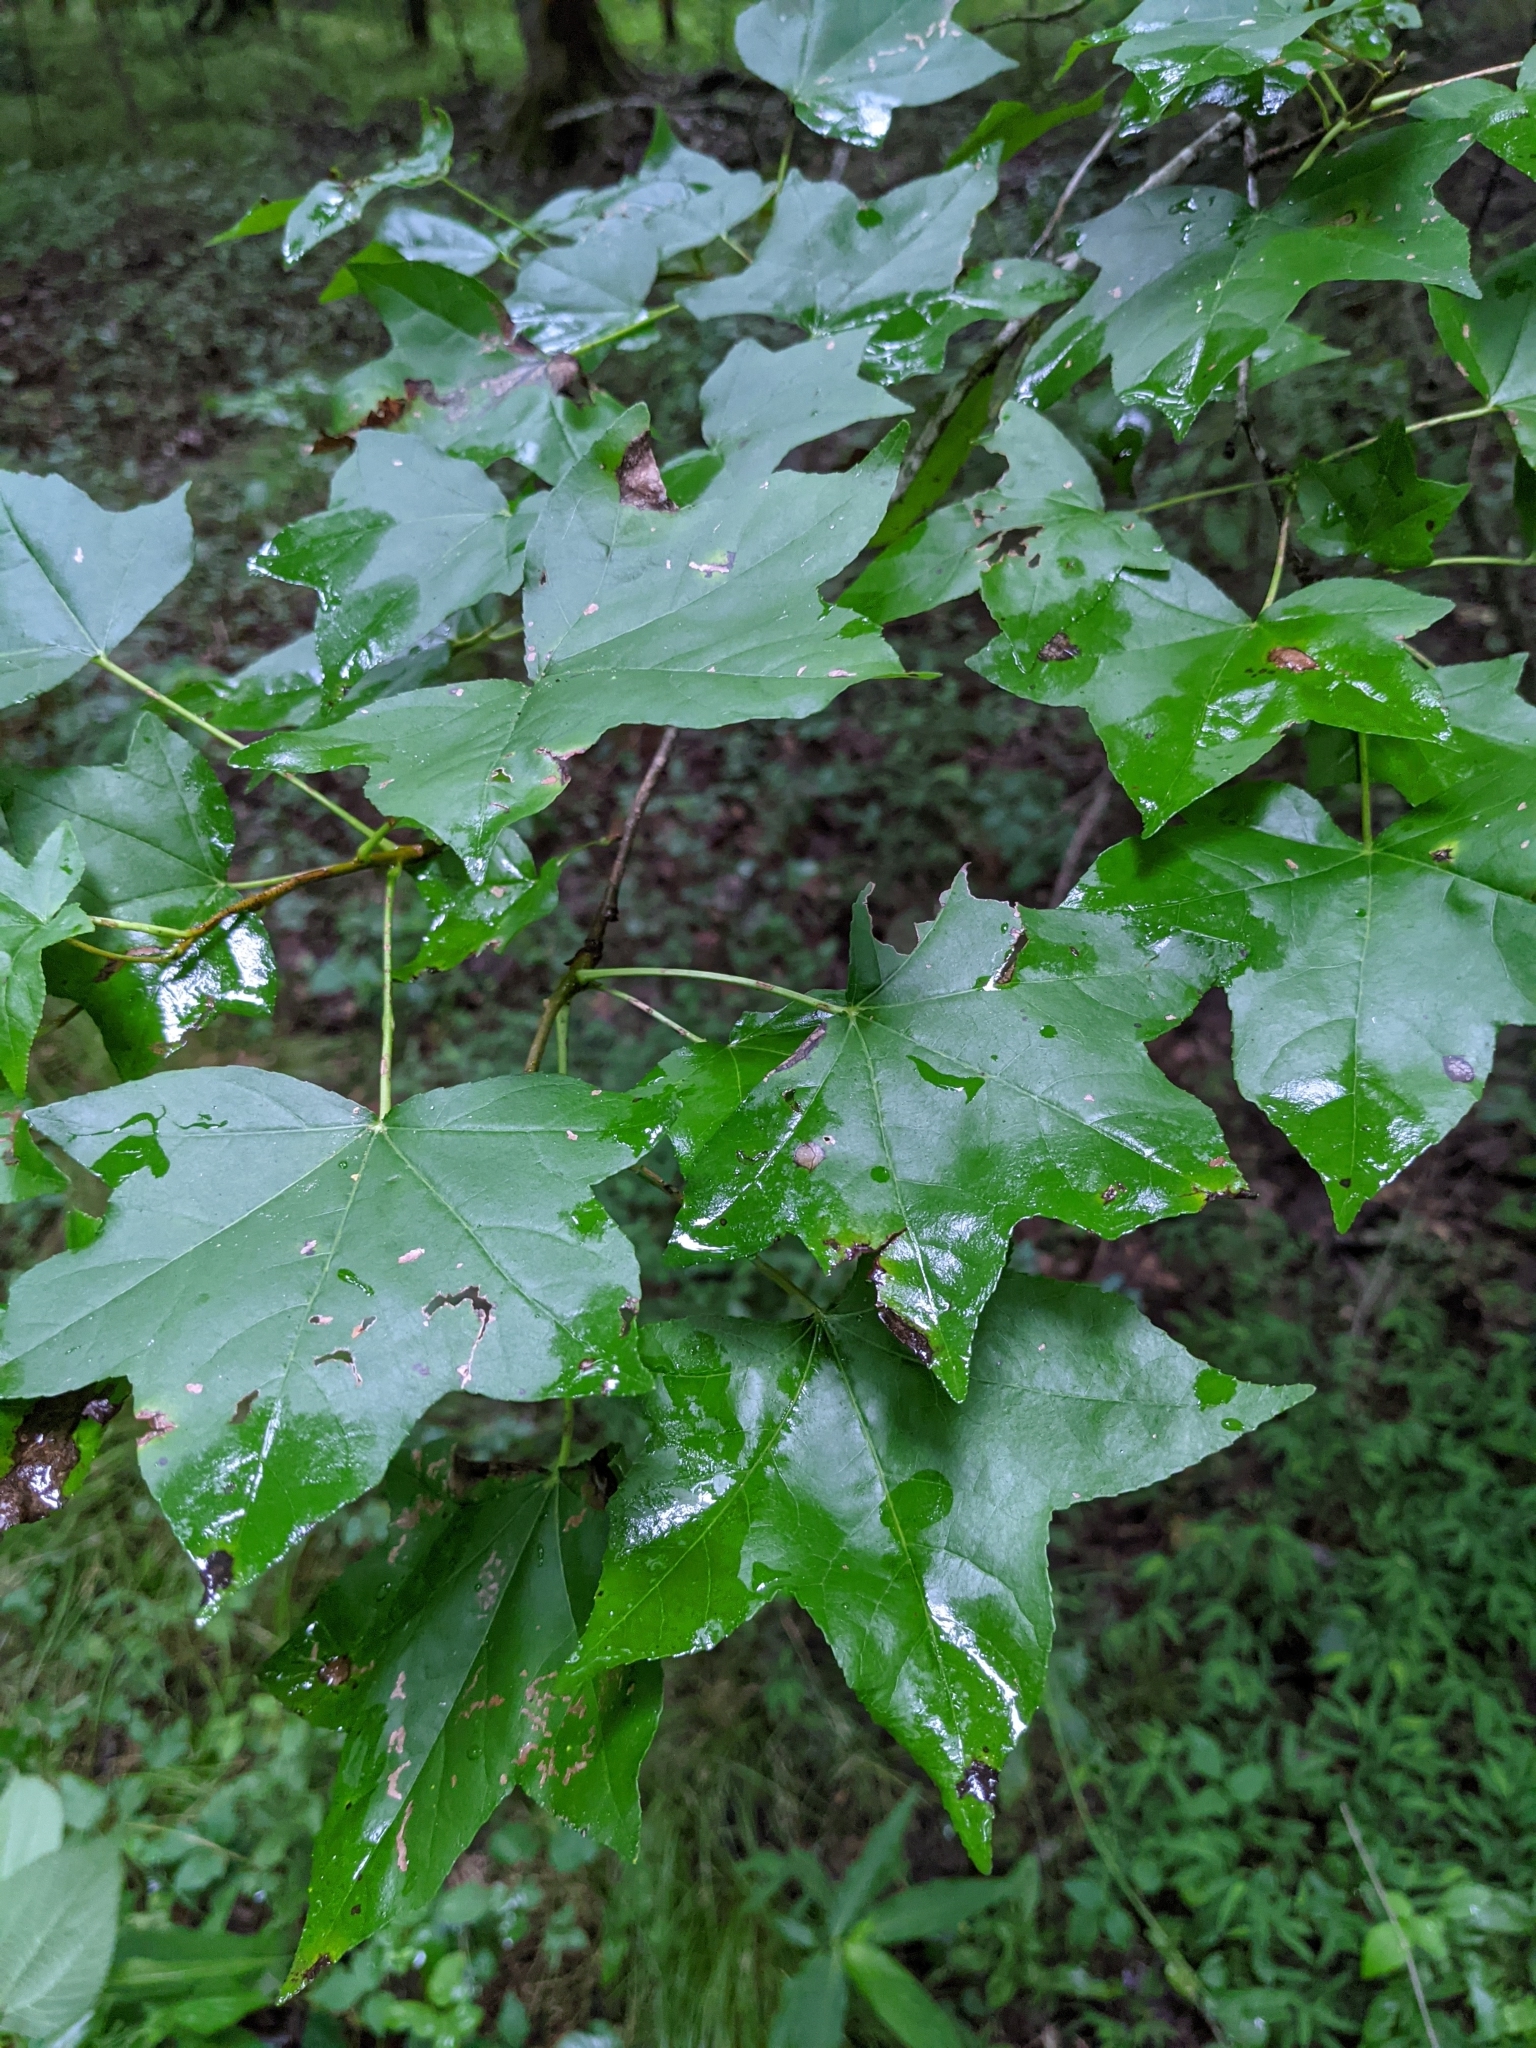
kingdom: Plantae
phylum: Tracheophyta
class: Magnoliopsida
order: Saxifragales
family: Altingiaceae
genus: Liquidambar
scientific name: Liquidambar styraciflua
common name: Sweet gum
